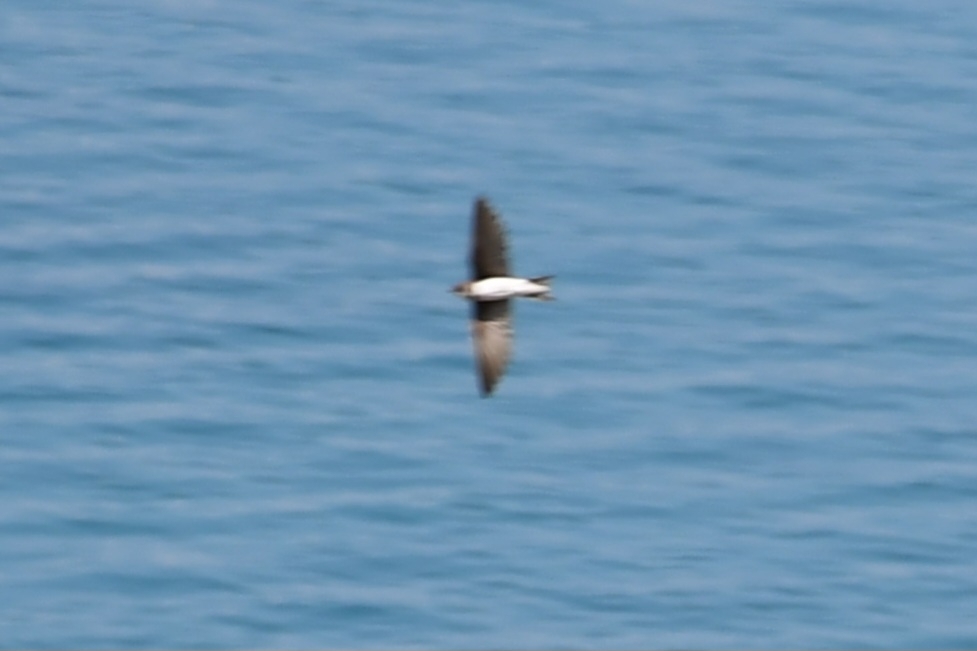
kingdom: Animalia
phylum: Chordata
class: Aves
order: Passeriformes
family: Hirundinidae
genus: Riparia
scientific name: Riparia riparia
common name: Sand martin
